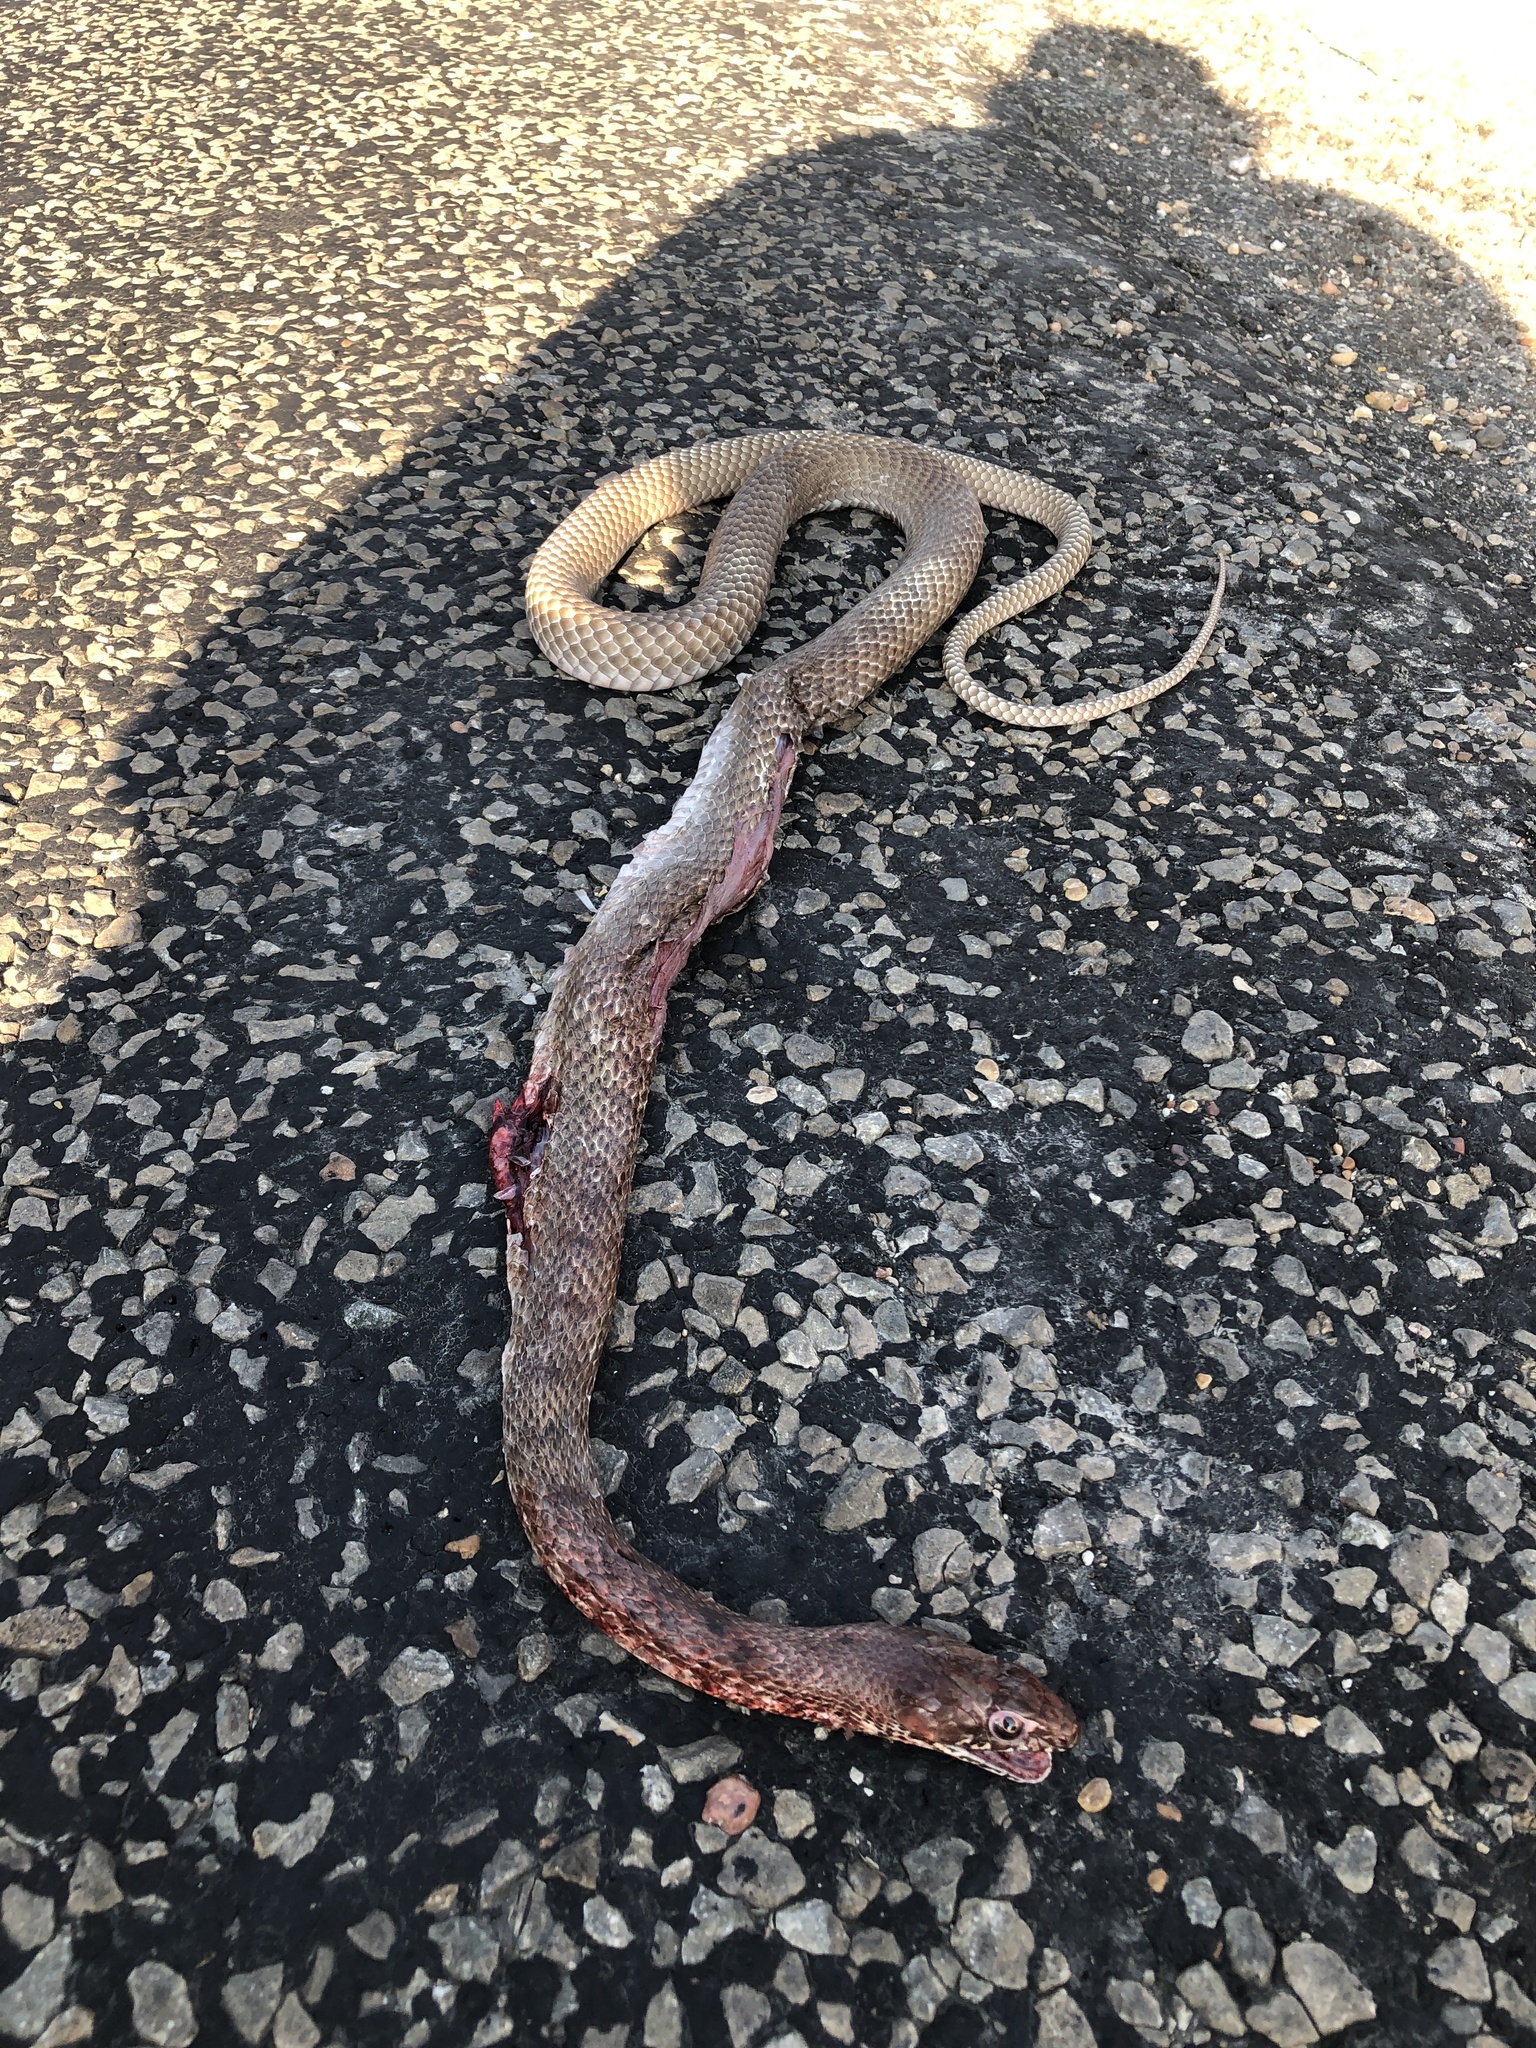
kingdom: Animalia
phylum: Chordata
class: Squamata
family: Colubridae
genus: Masticophis
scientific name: Masticophis flagellum
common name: Coachwhip
